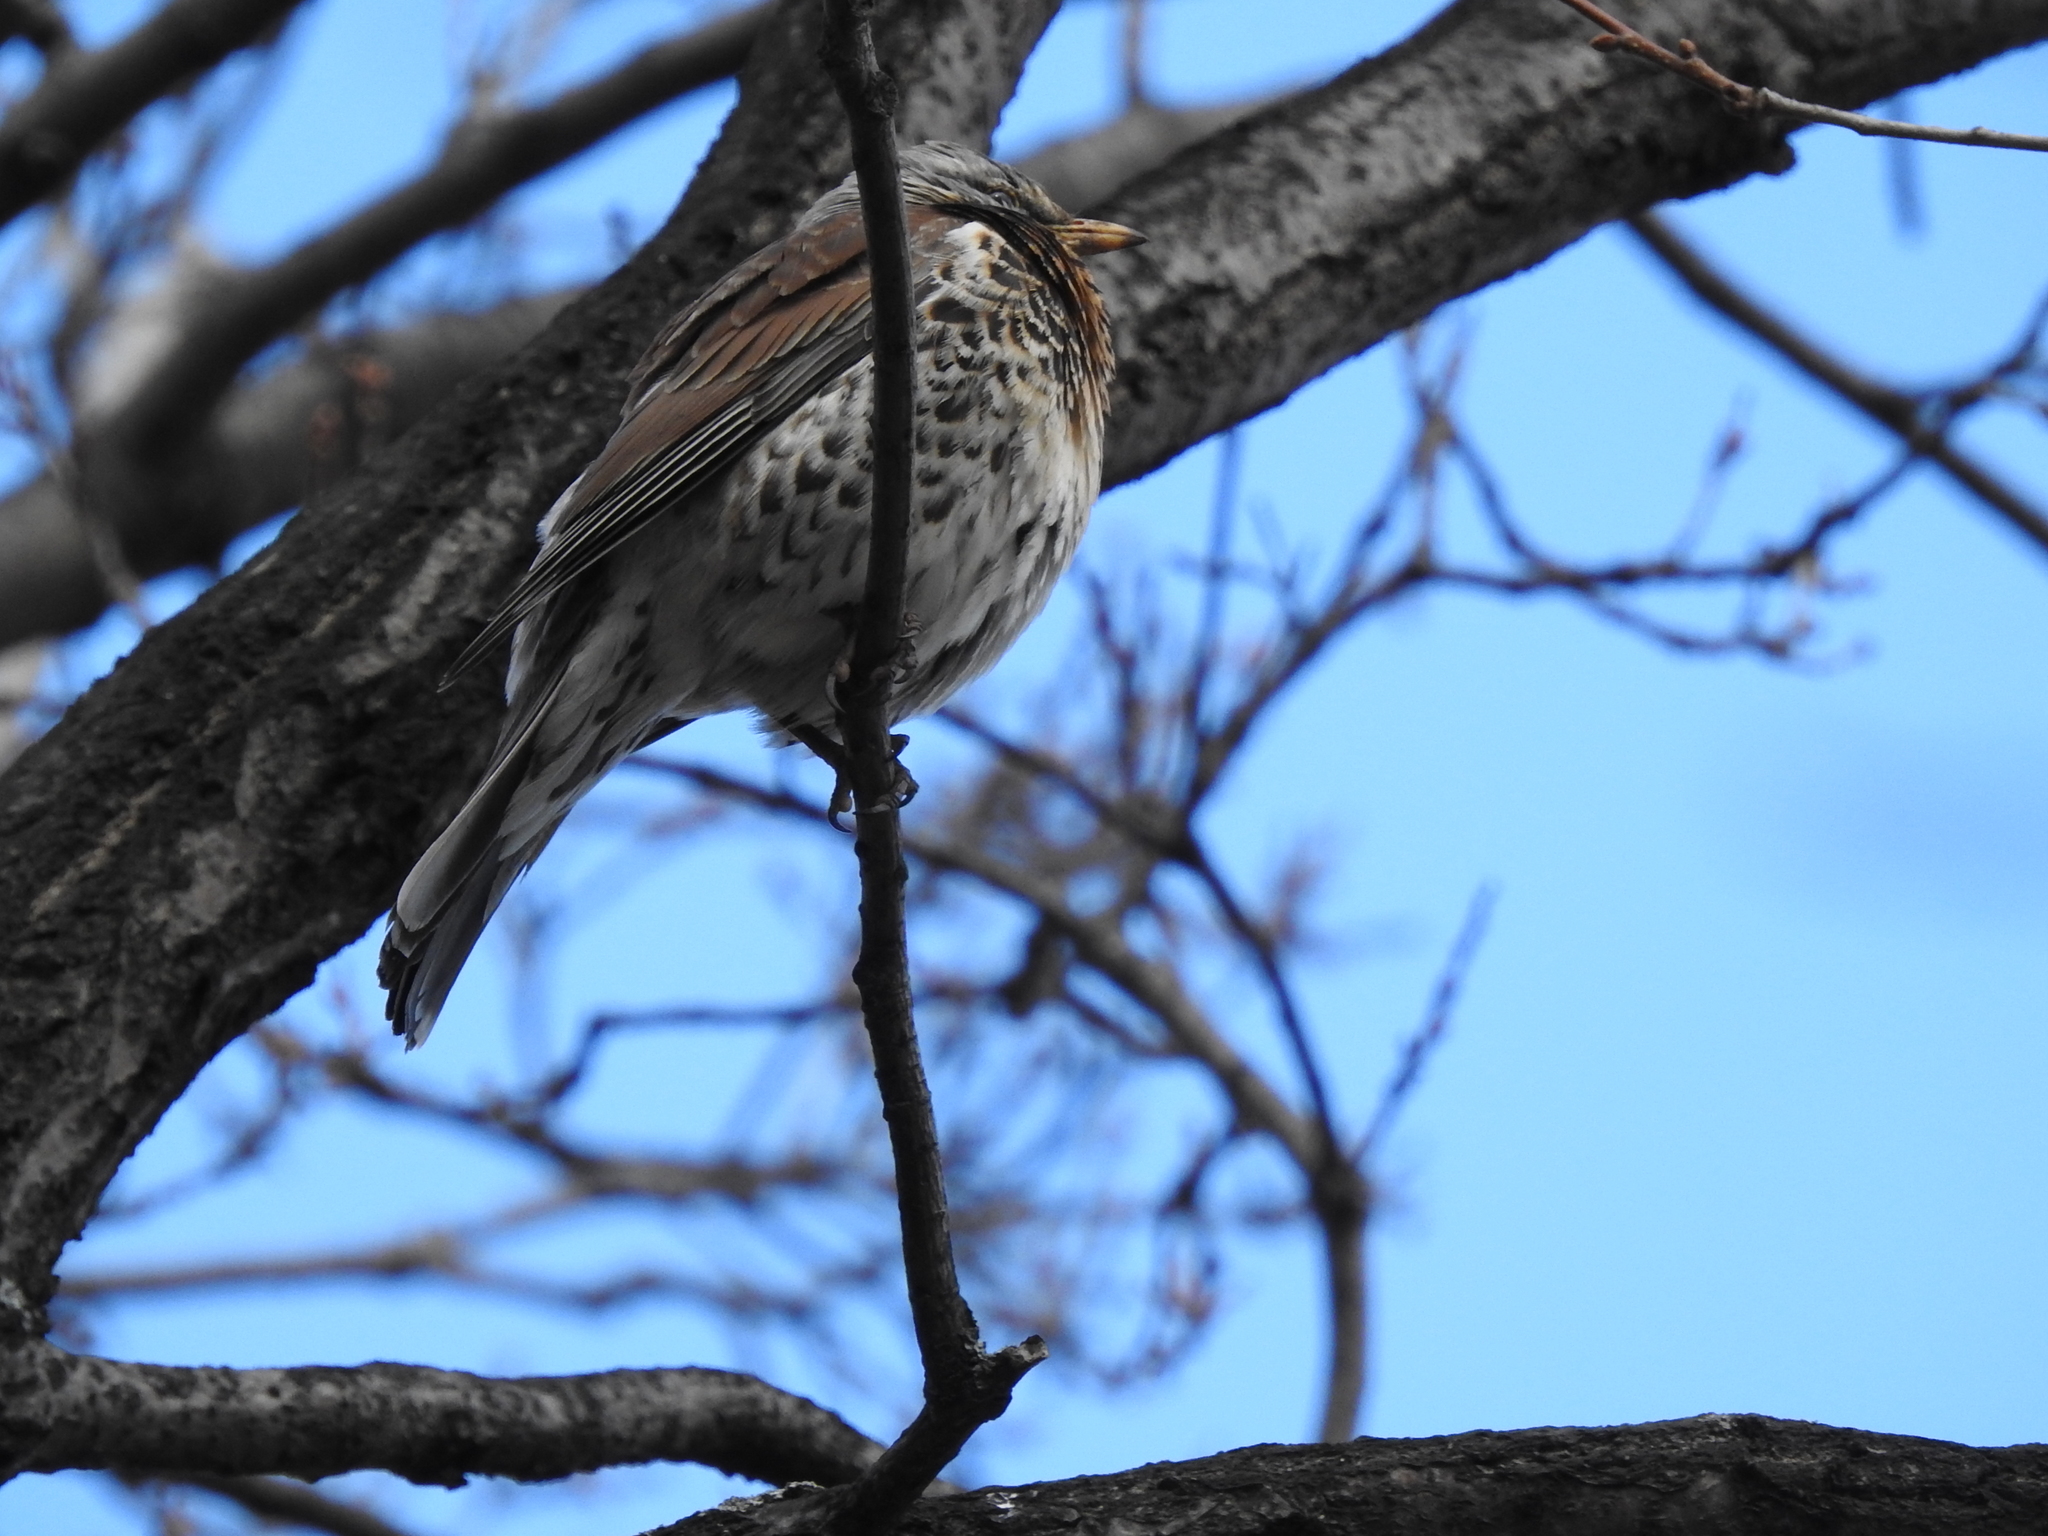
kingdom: Animalia
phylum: Chordata
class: Aves
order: Passeriformes
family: Turdidae
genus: Turdus
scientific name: Turdus pilaris
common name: Fieldfare
